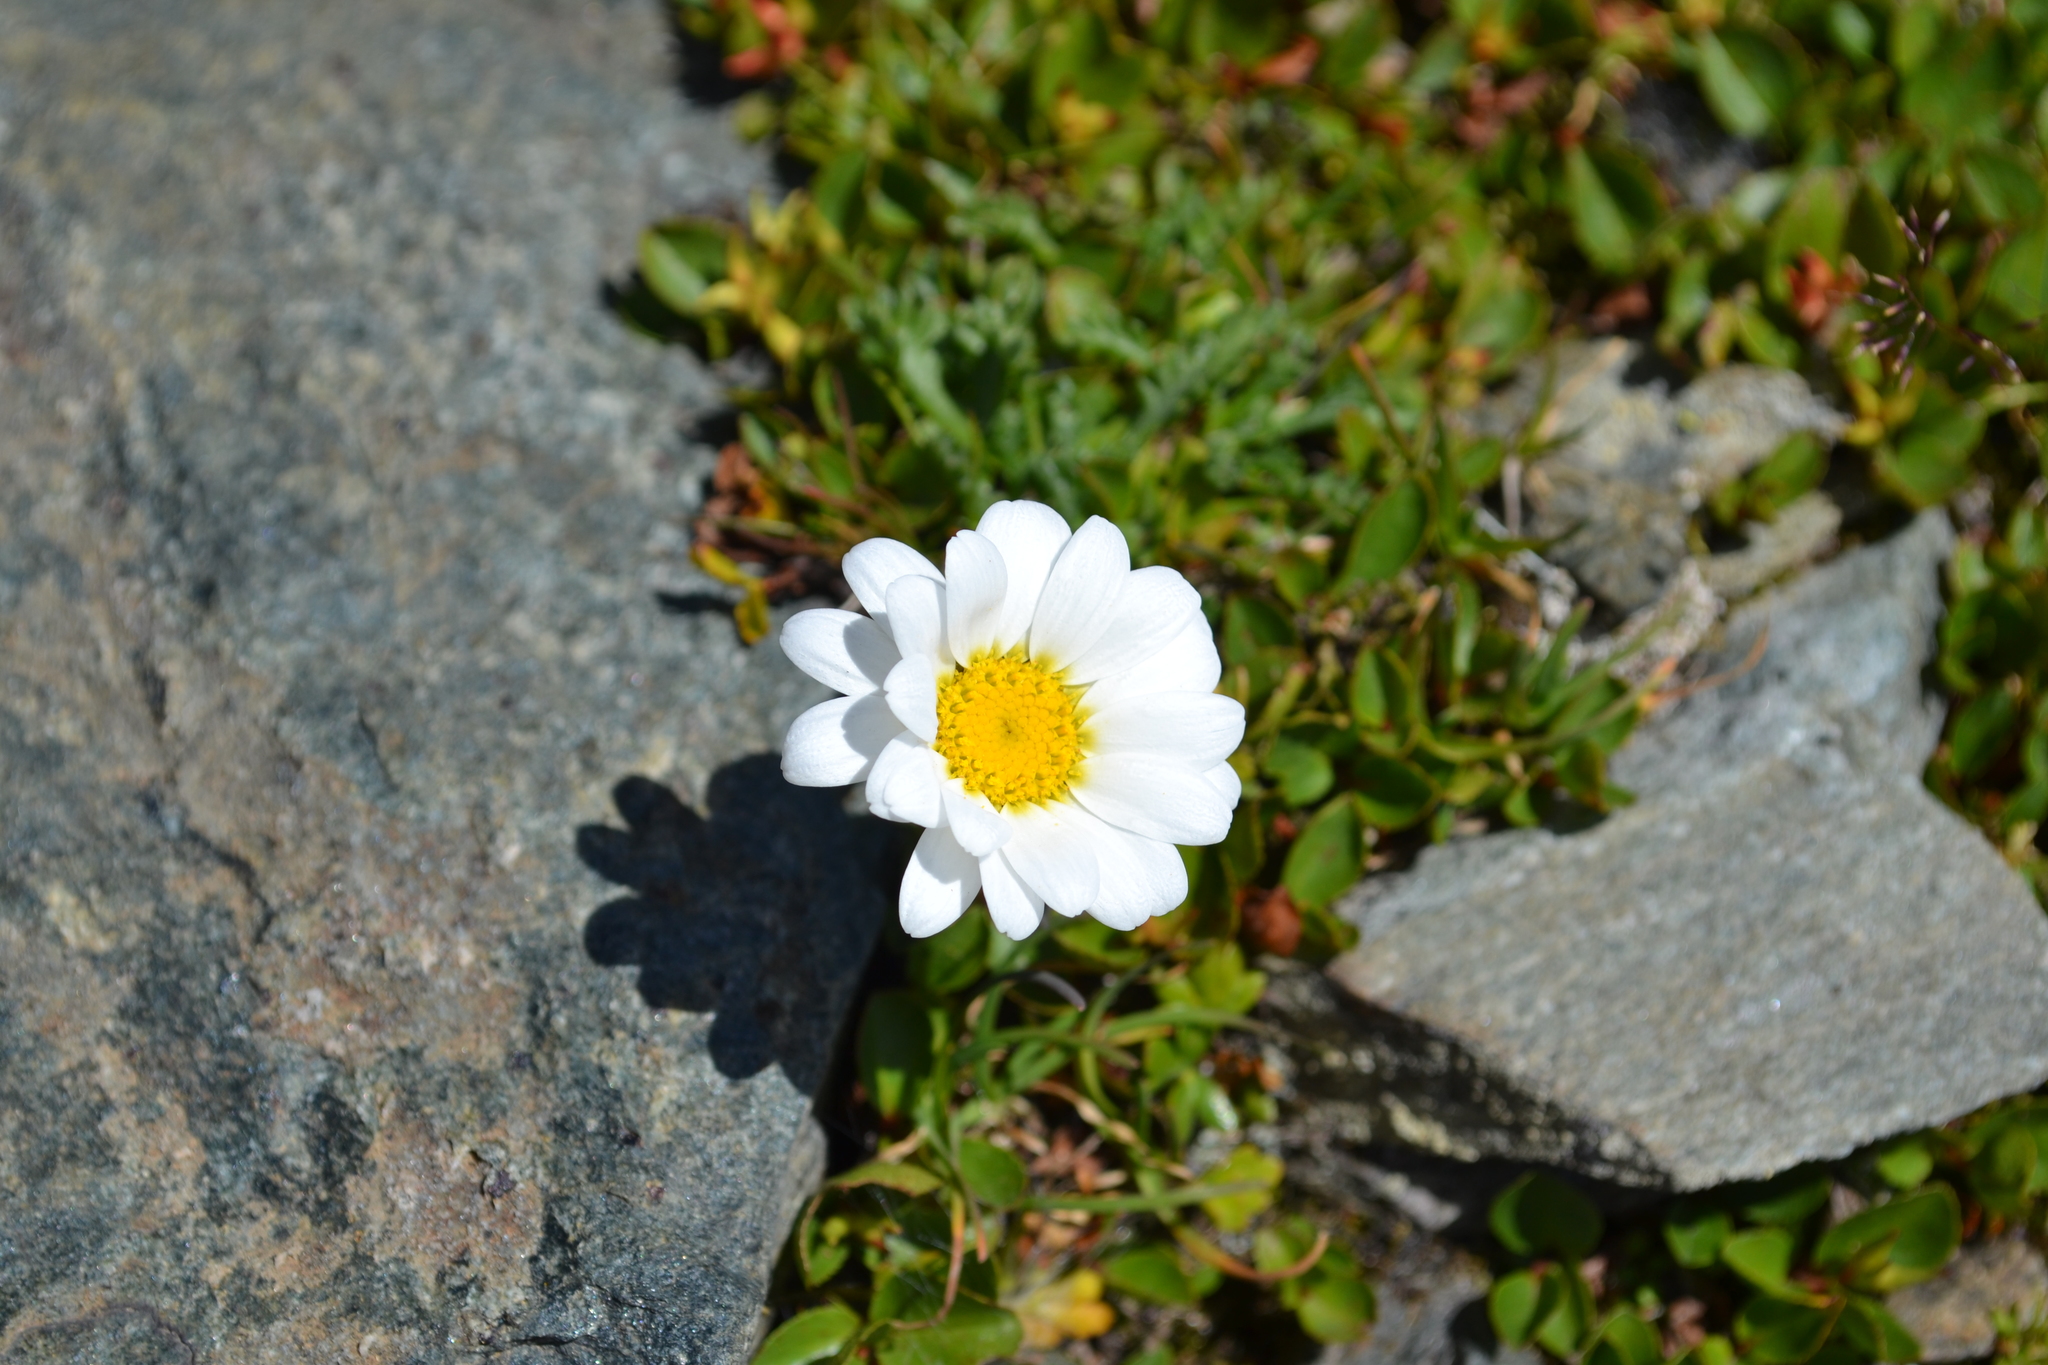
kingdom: Plantae
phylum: Tracheophyta
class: Magnoliopsida
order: Asterales
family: Asteraceae
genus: Leucanthemopsis
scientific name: Leucanthemopsis alpina
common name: Alpine moon daisy
